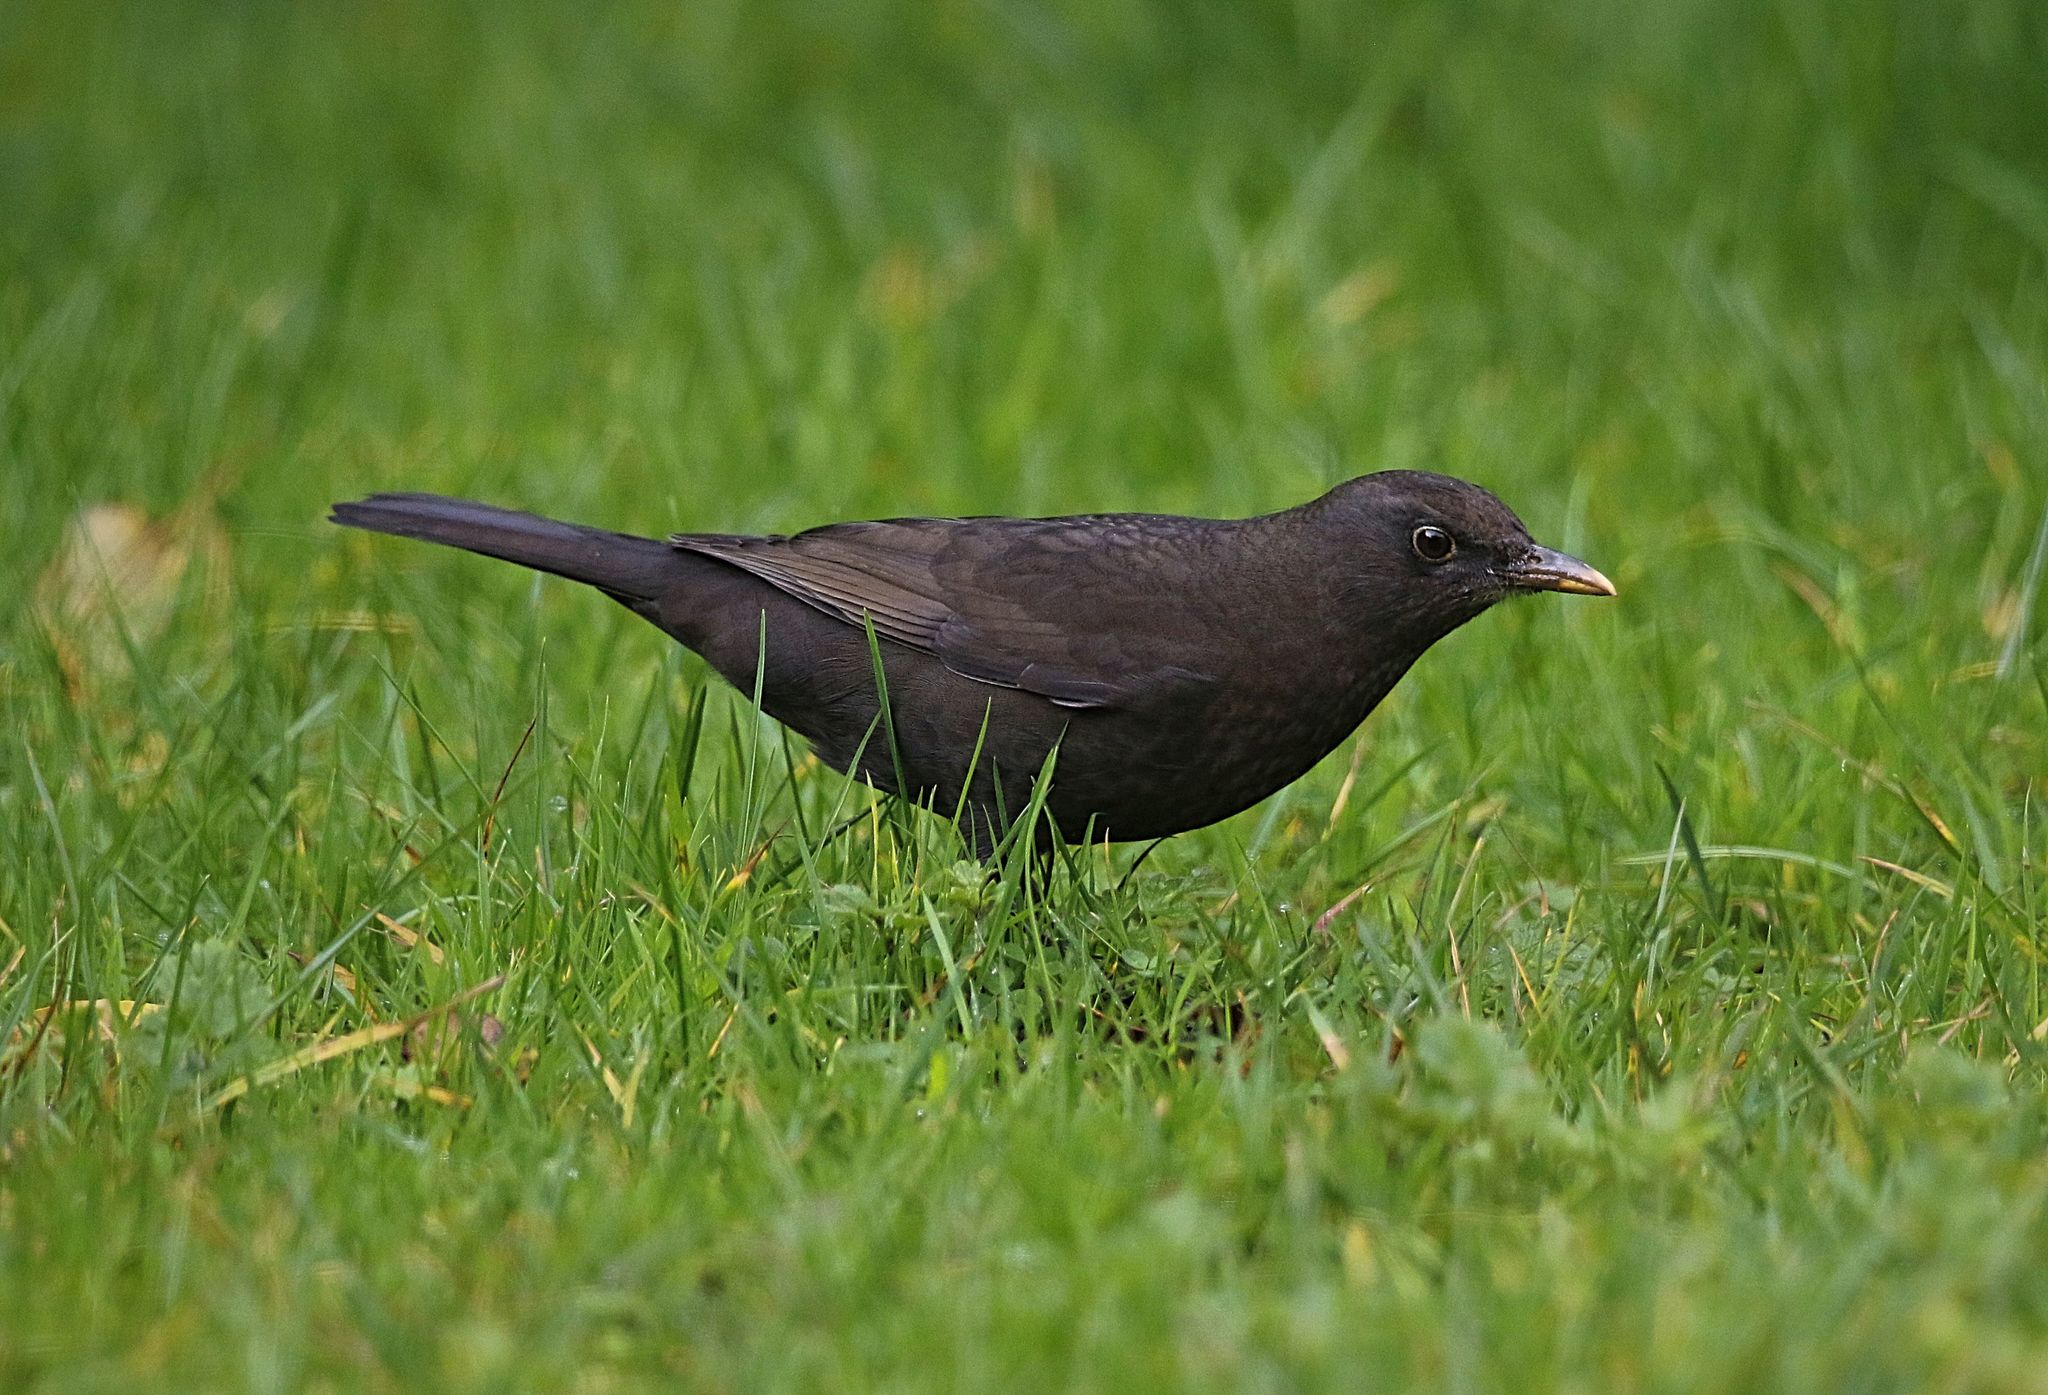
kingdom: Animalia
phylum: Chordata
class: Aves
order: Passeriformes
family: Turdidae
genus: Turdus
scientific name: Turdus merula
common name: Common blackbird
